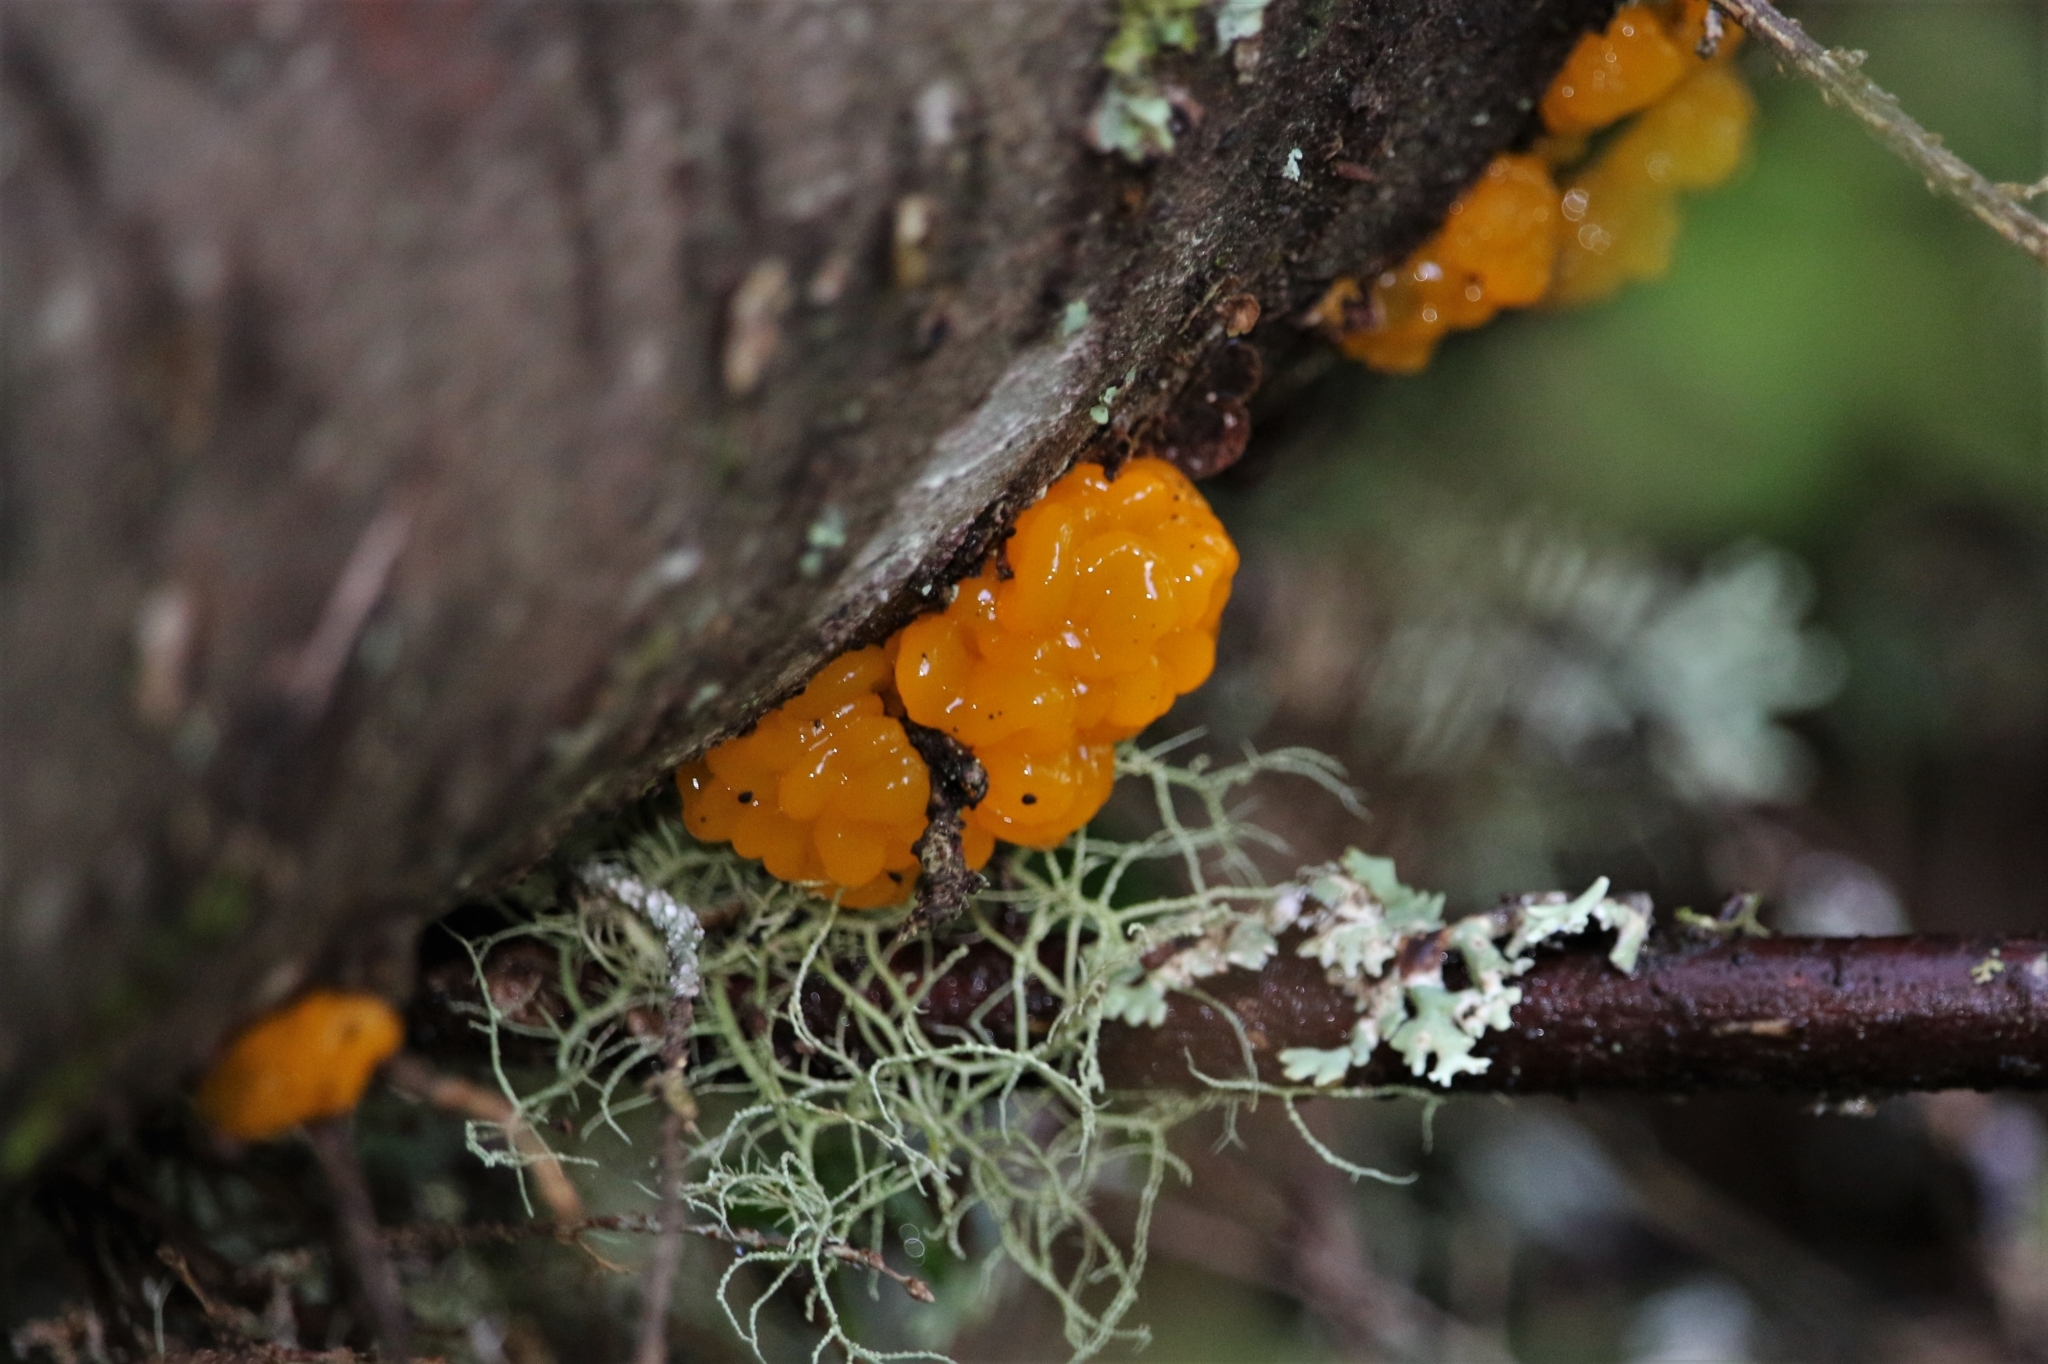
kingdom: Fungi
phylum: Basidiomycota
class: Dacrymycetes
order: Dacrymycetales
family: Dacrymycetaceae
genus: Dacrymyces
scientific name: Dacrymyces chrysospermus
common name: Orange jelly spot
